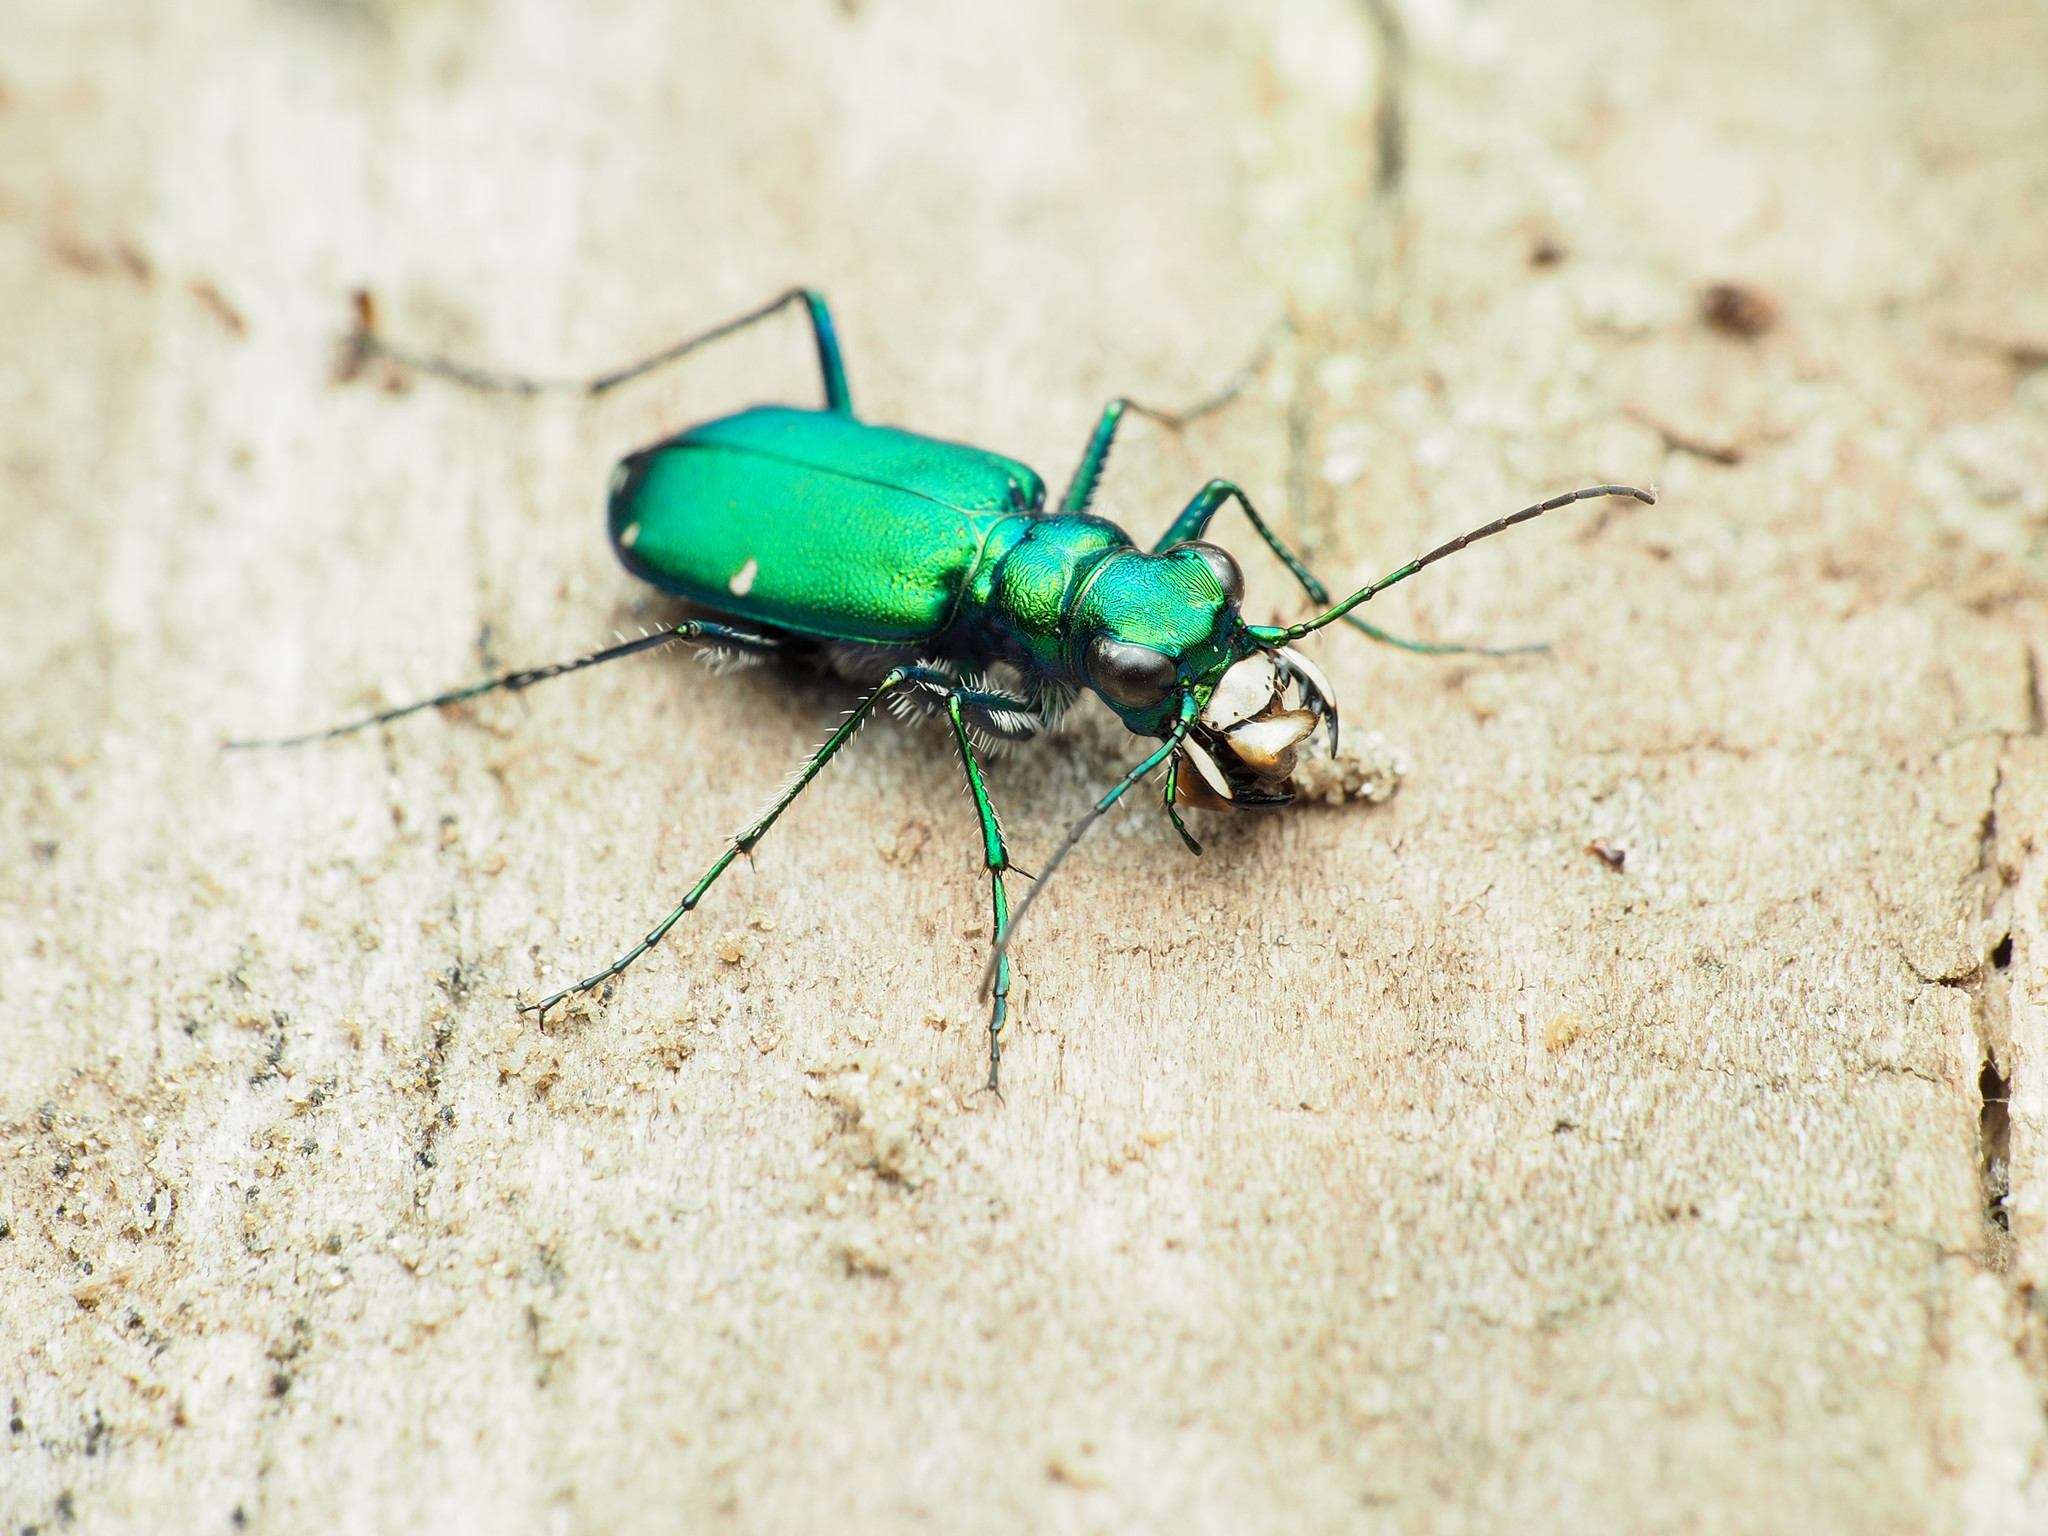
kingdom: Animalia
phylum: Arthropoda
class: Insecta
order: Coleoptera
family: Carabidae
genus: Cicindela
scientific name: Cicindela sexguttata
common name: Six-spotted tiger beetle
